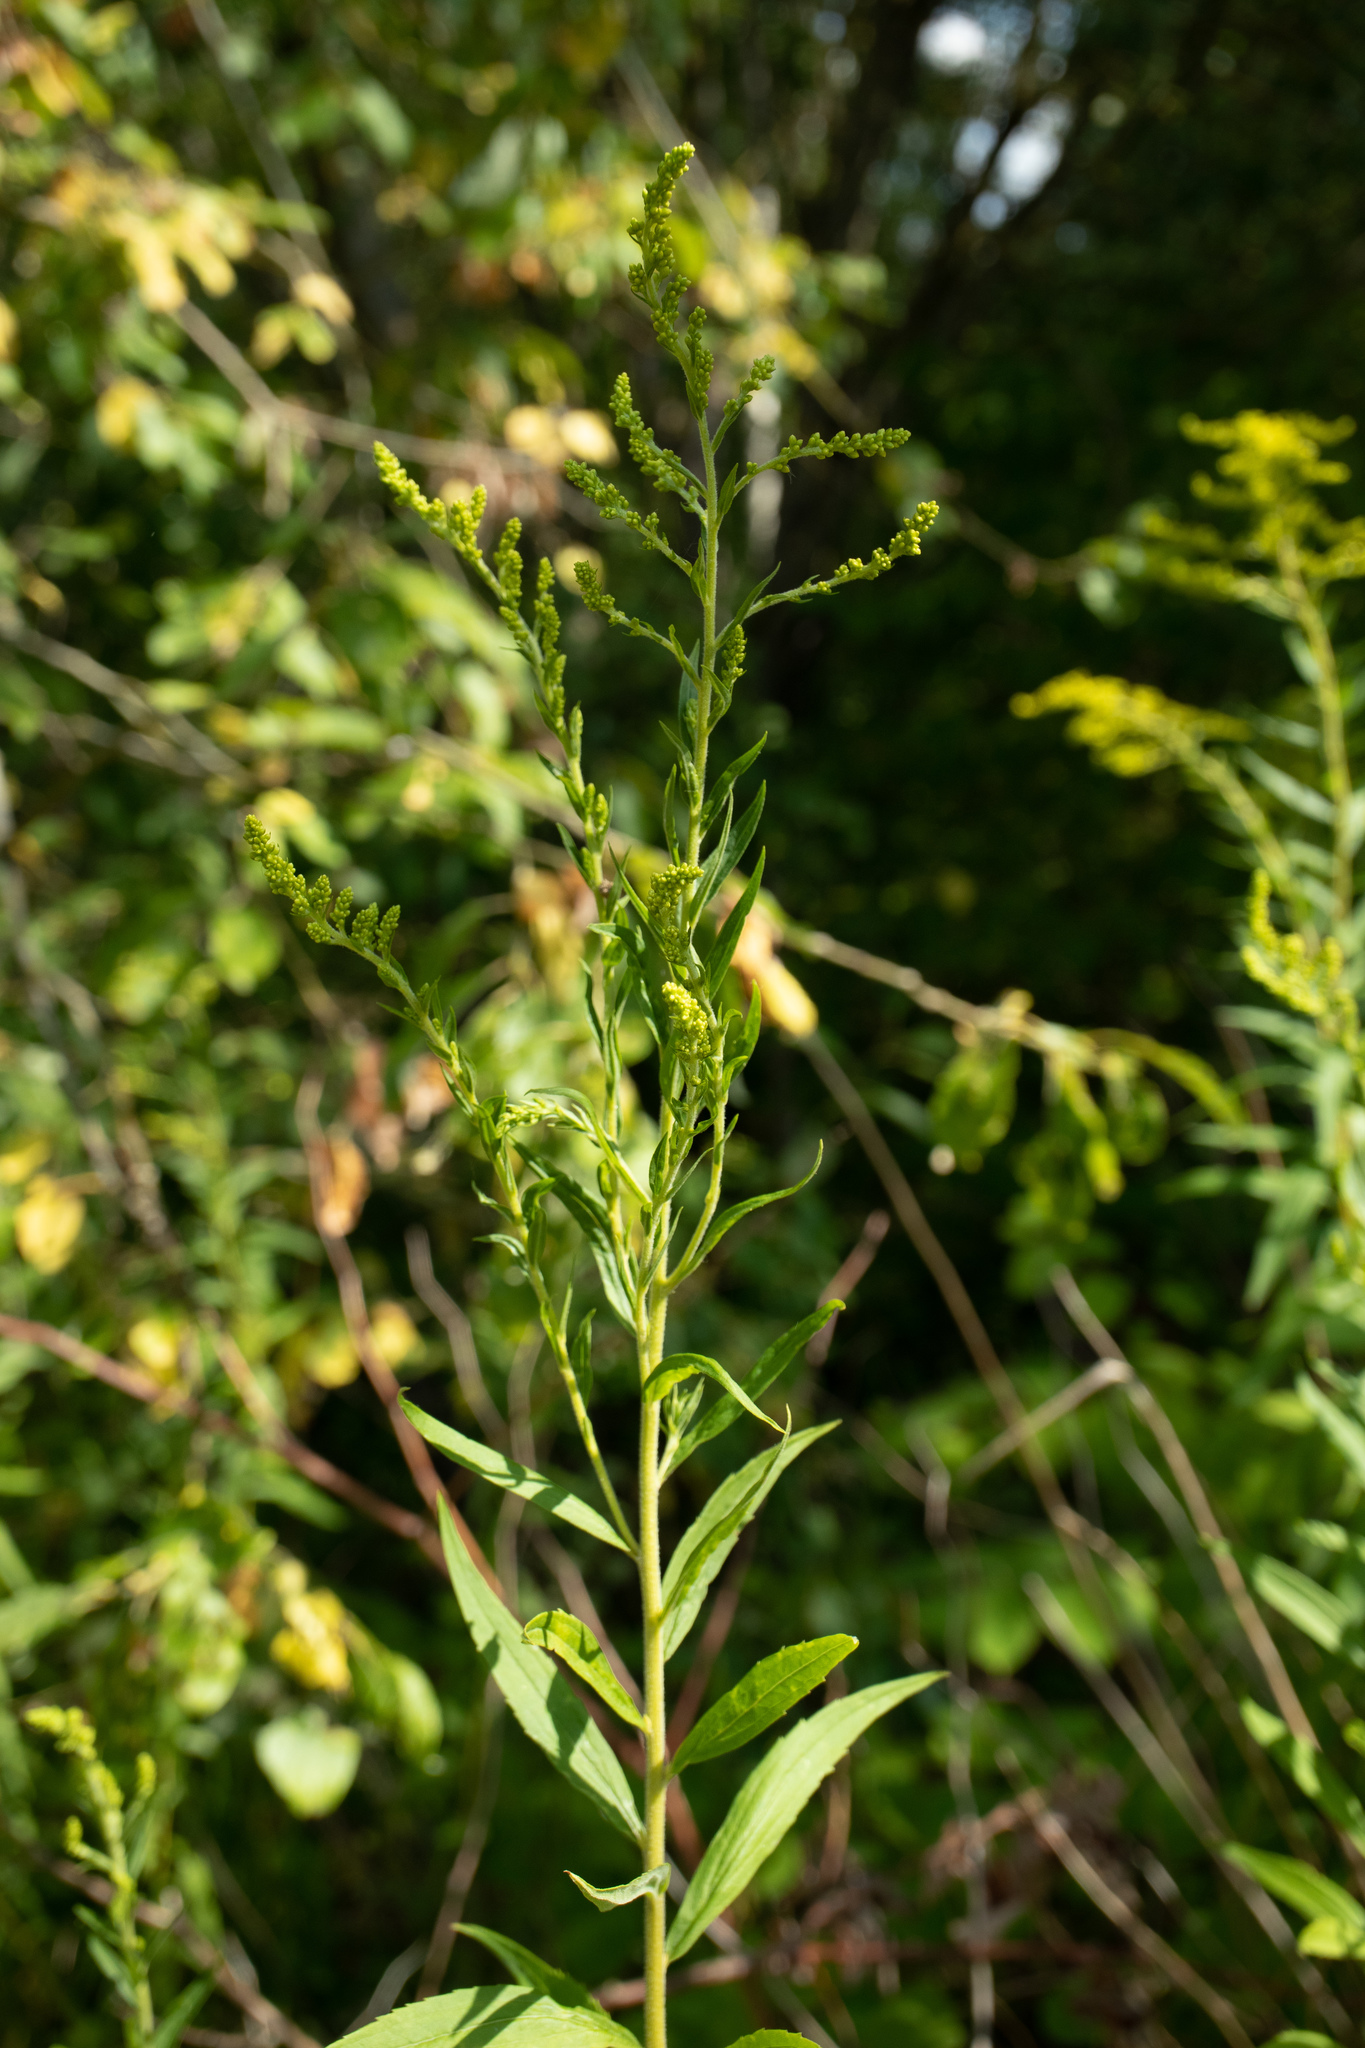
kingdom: Plantae
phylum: Tracheophyta
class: Magnoliopsida
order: Asterales
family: Asteraceae
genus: Solidago
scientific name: Solidago canadensis
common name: Canada goldenrod
